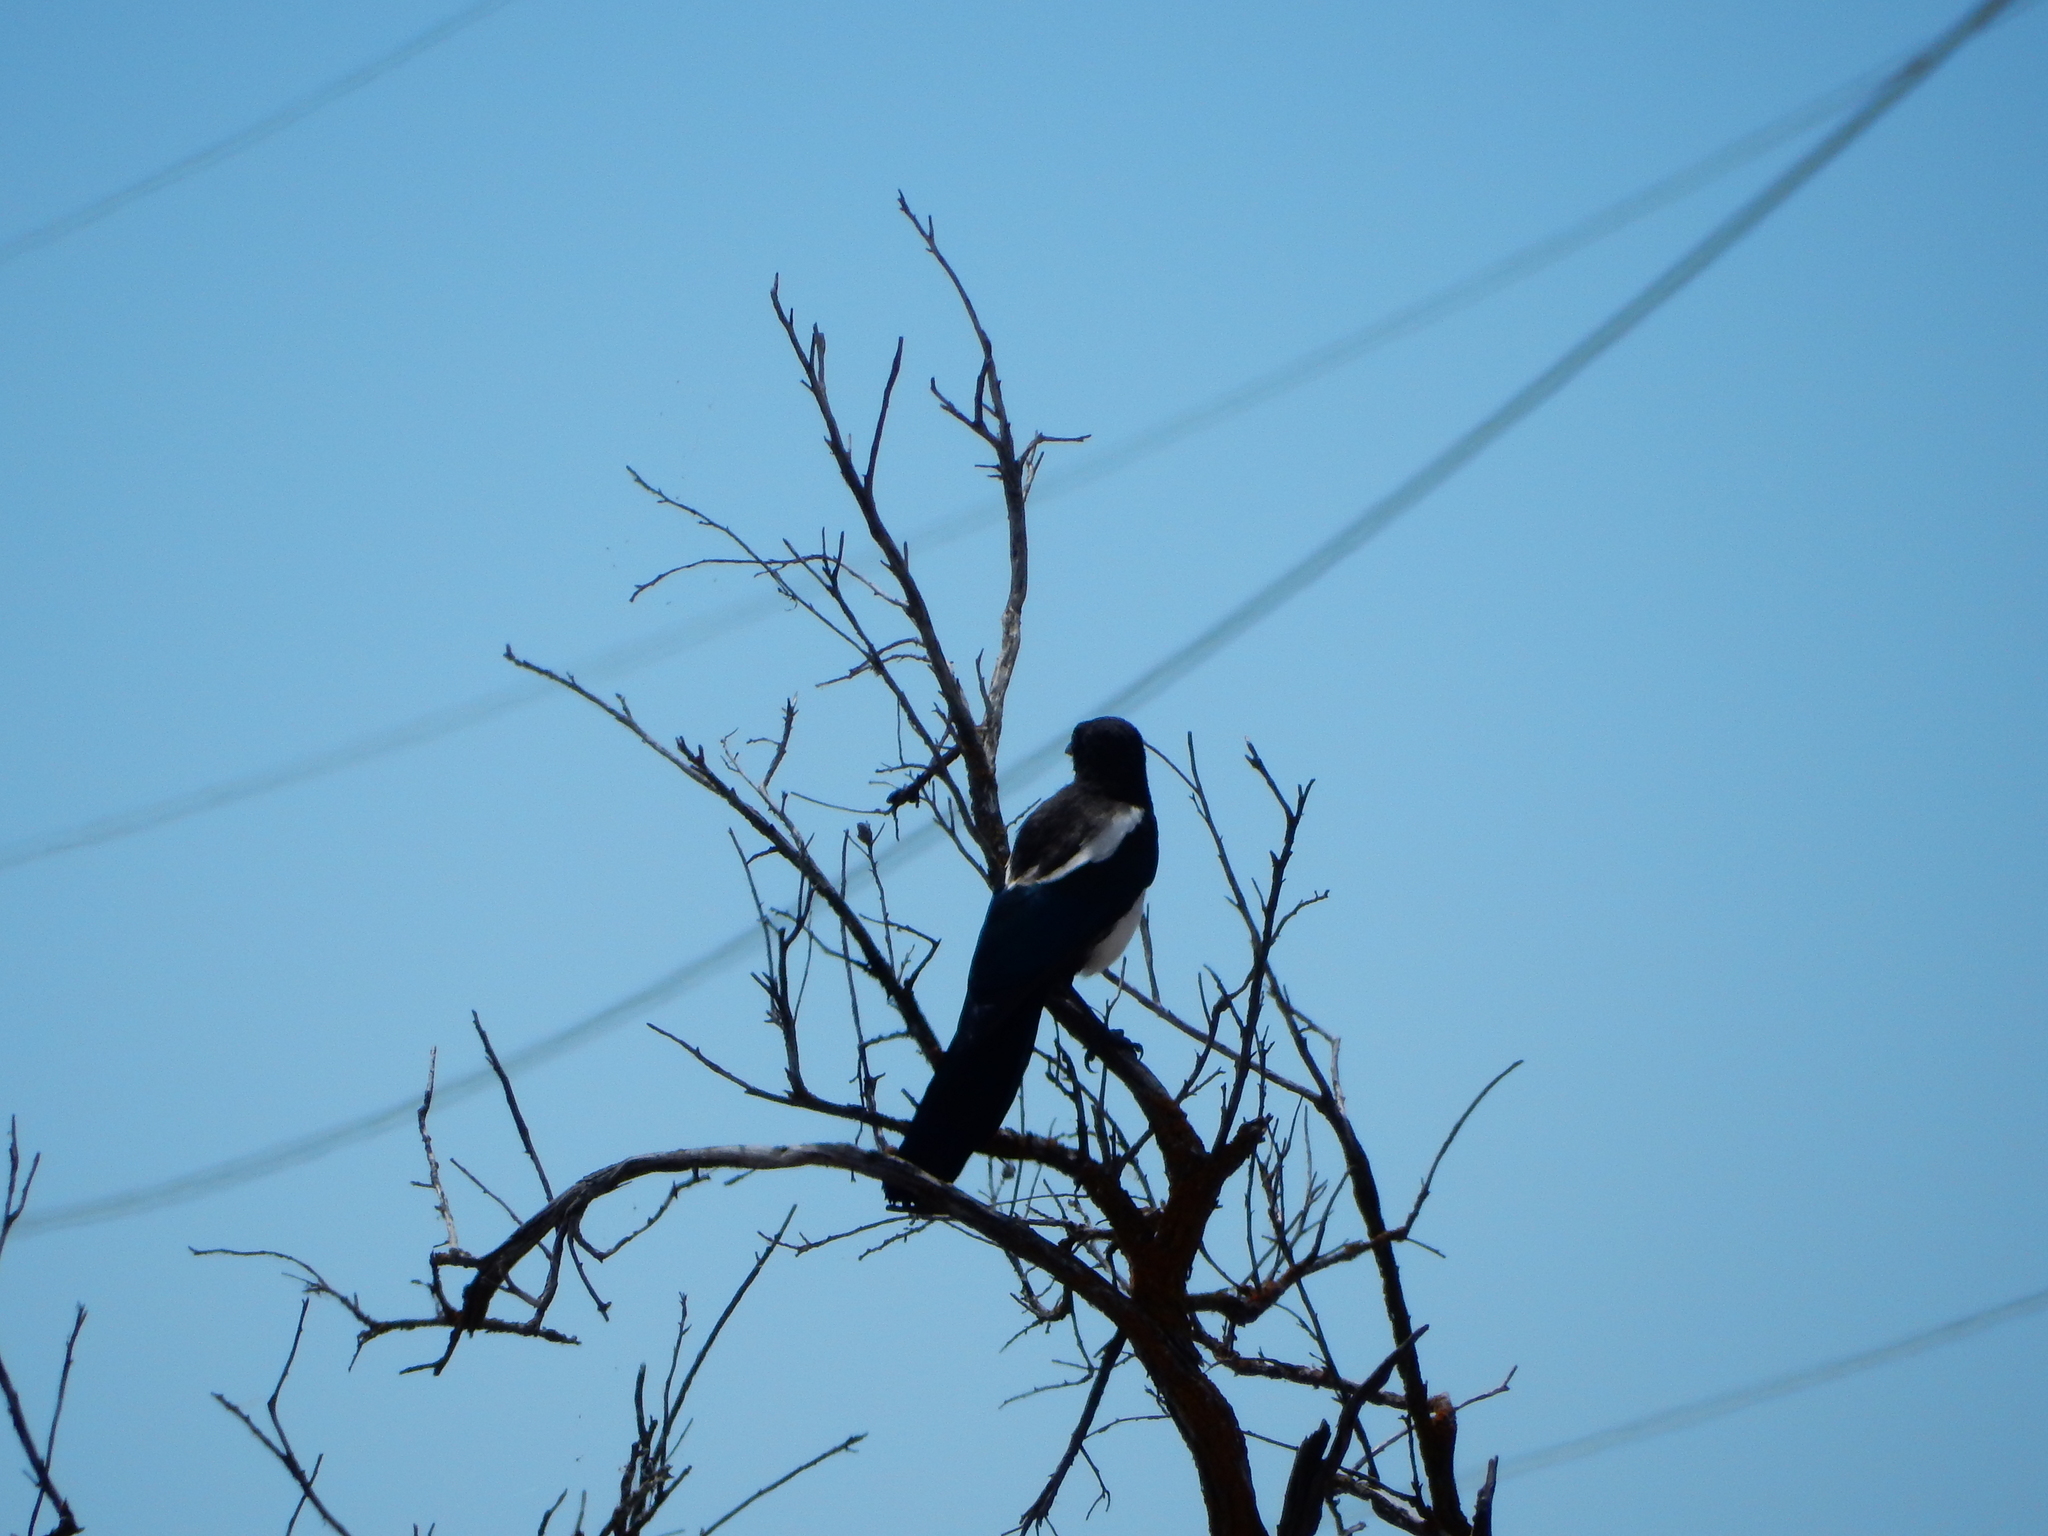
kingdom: Animalia
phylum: Chordata
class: Aves
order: Passeriformes
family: Corvidae
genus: Pica
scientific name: Pica hudsonia
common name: Black-billed magpie
